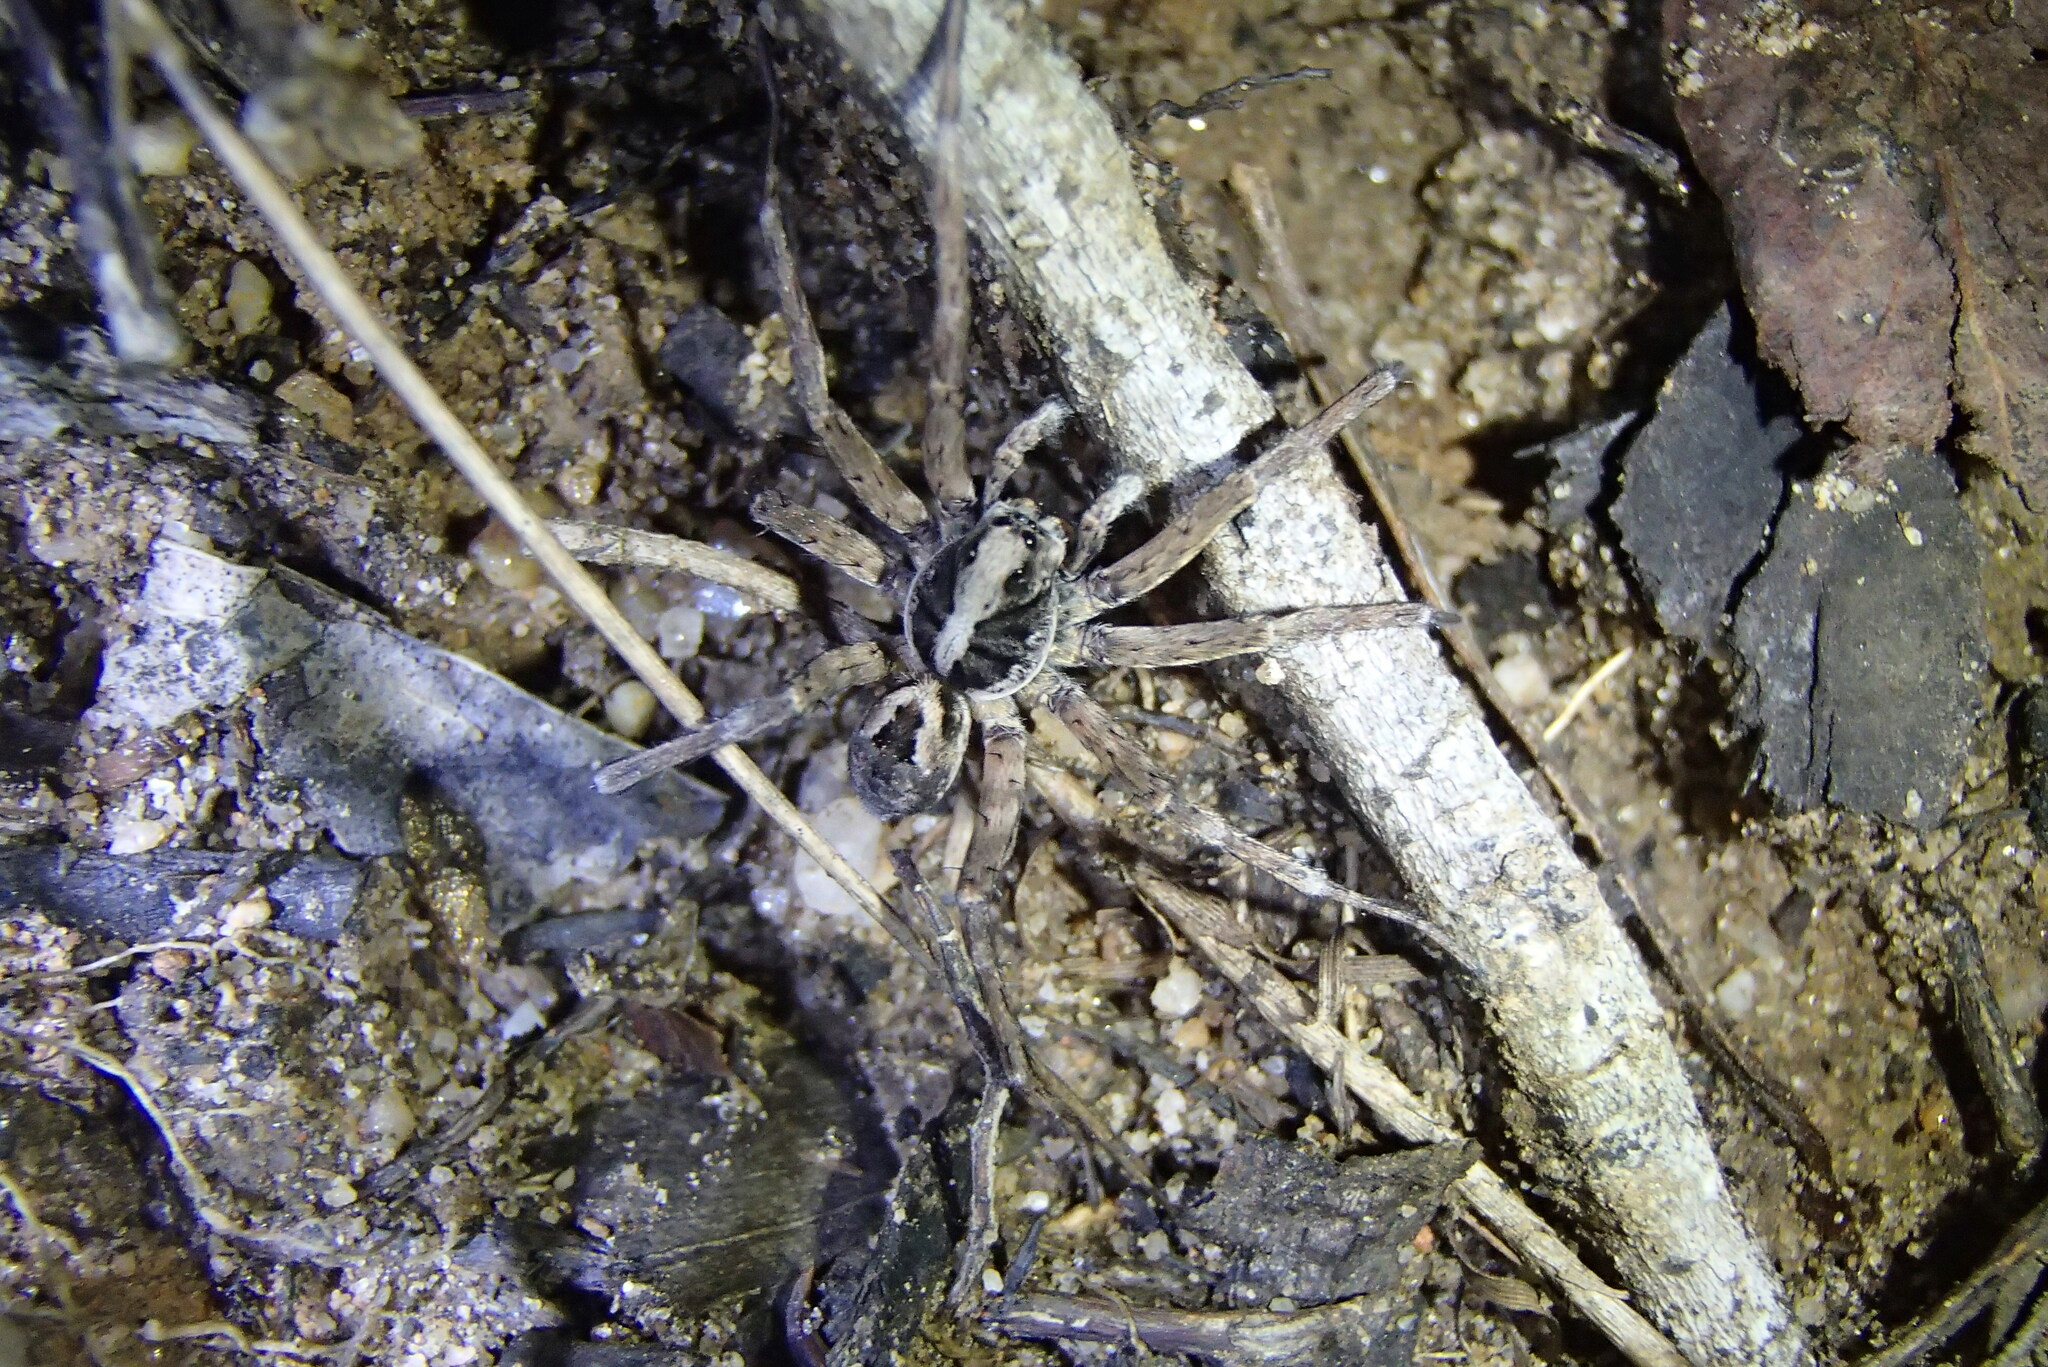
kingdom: Animalia
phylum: Arthropoda
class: Arachnida
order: Araneae
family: Lycosidae
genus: Venator
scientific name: Venator spenceri
